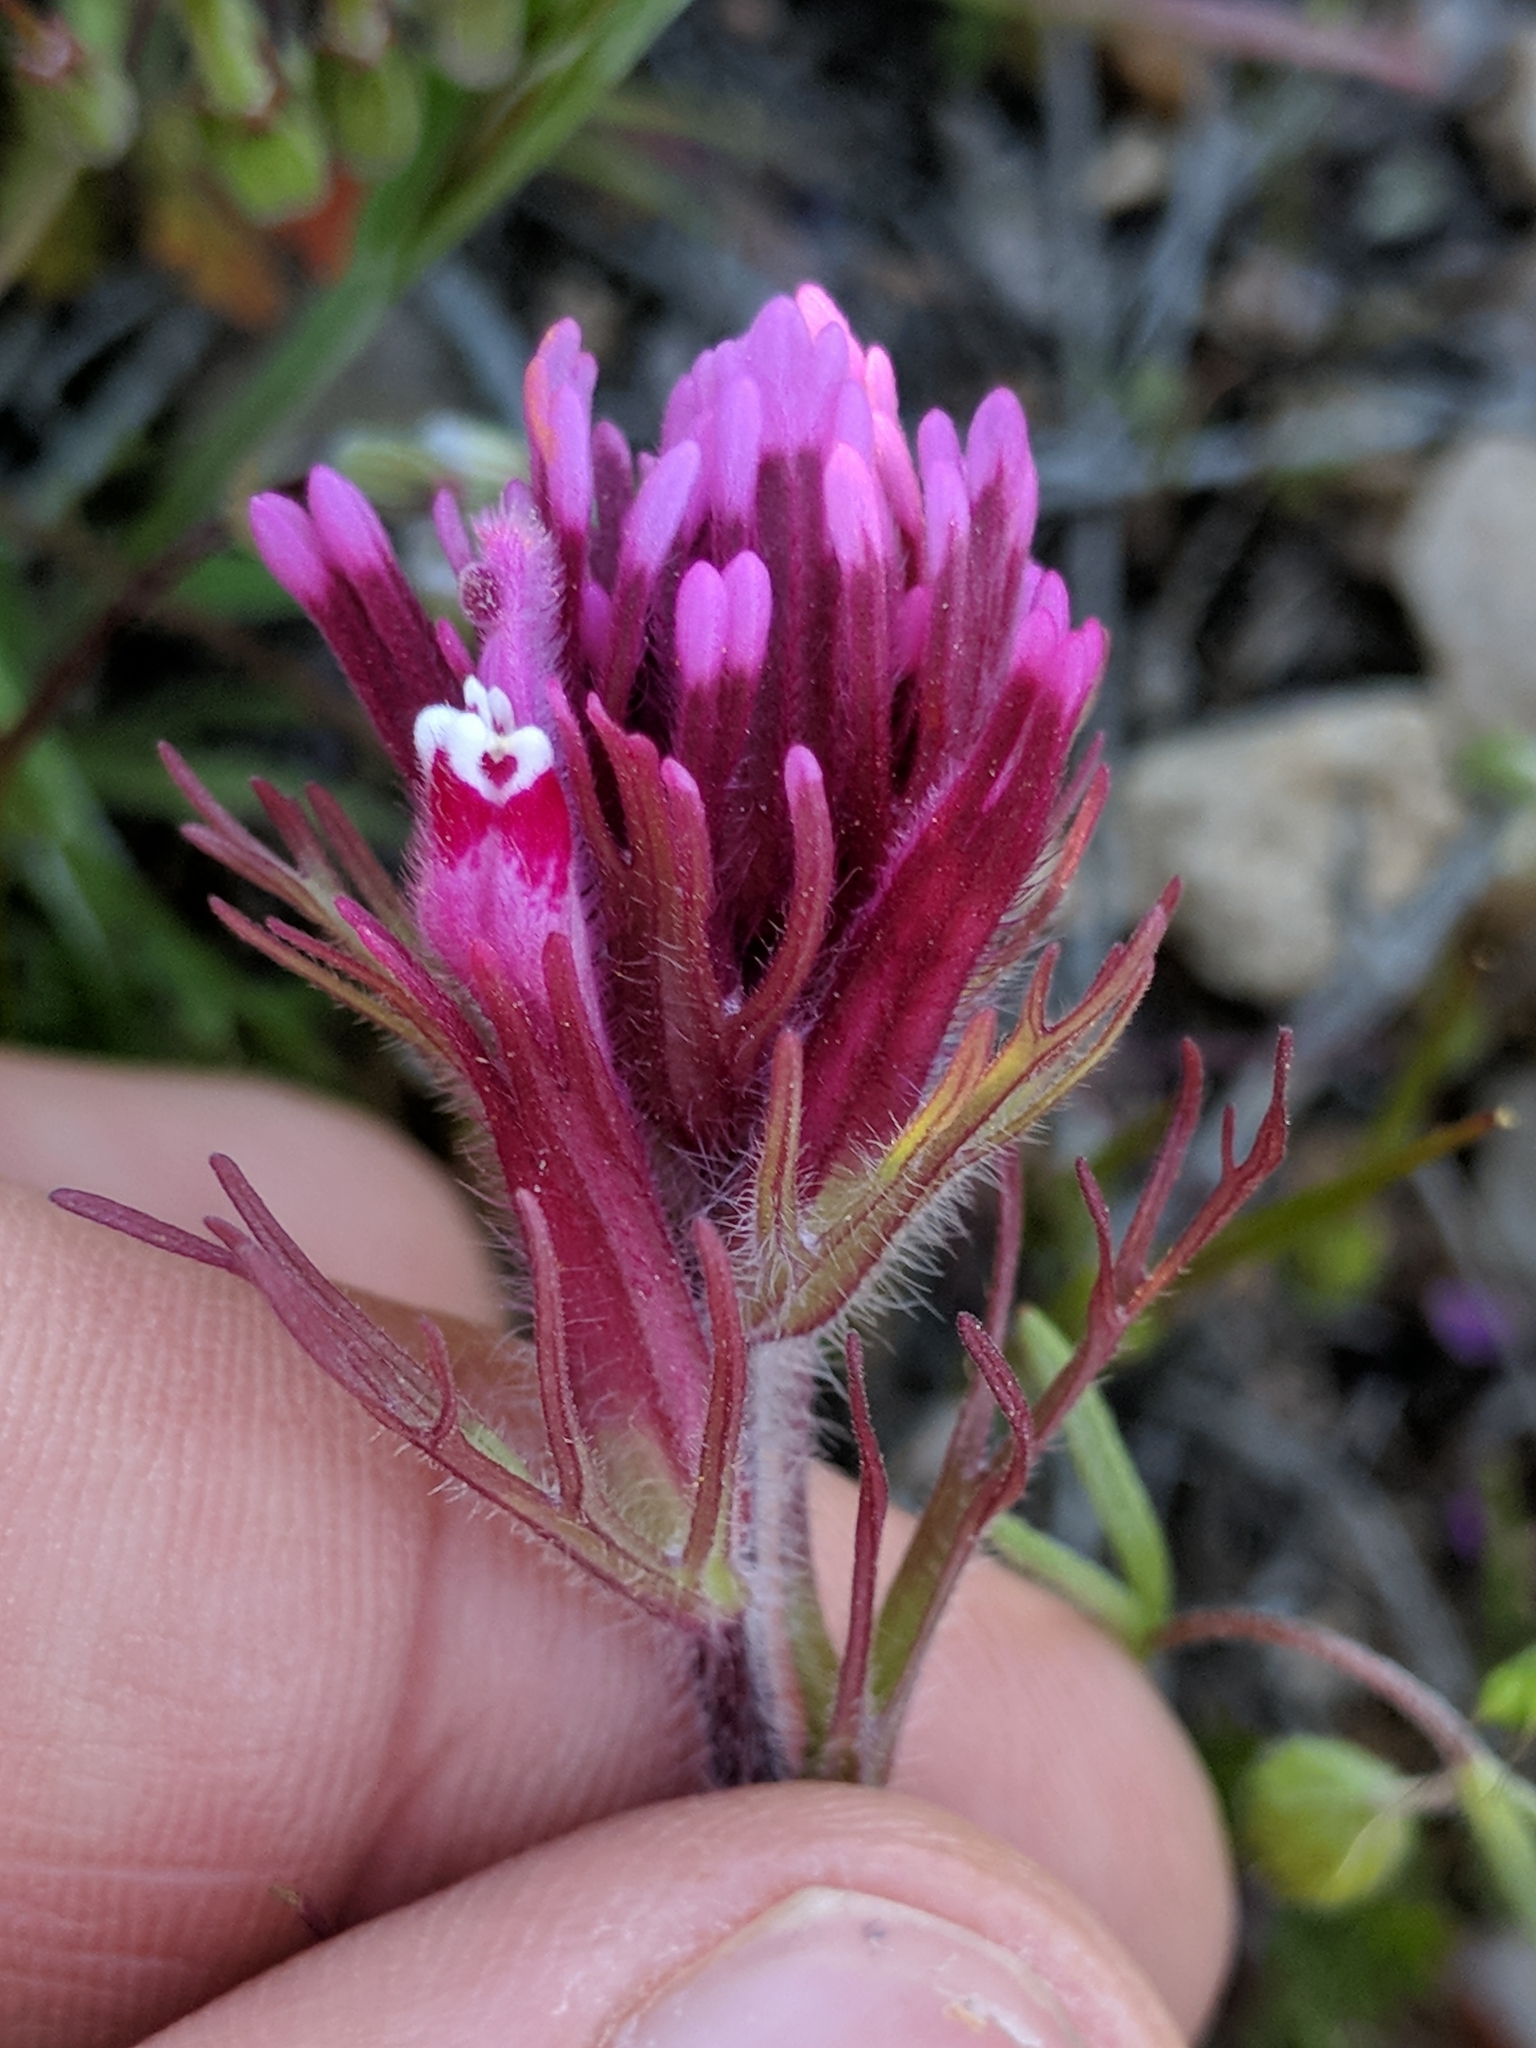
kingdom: Plantae
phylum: Tracheophyta
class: Magnoliopsida
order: Lamiales
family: Orobanchaceae
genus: Castilleja
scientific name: Castilleja exserta
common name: Purple owl-clover
